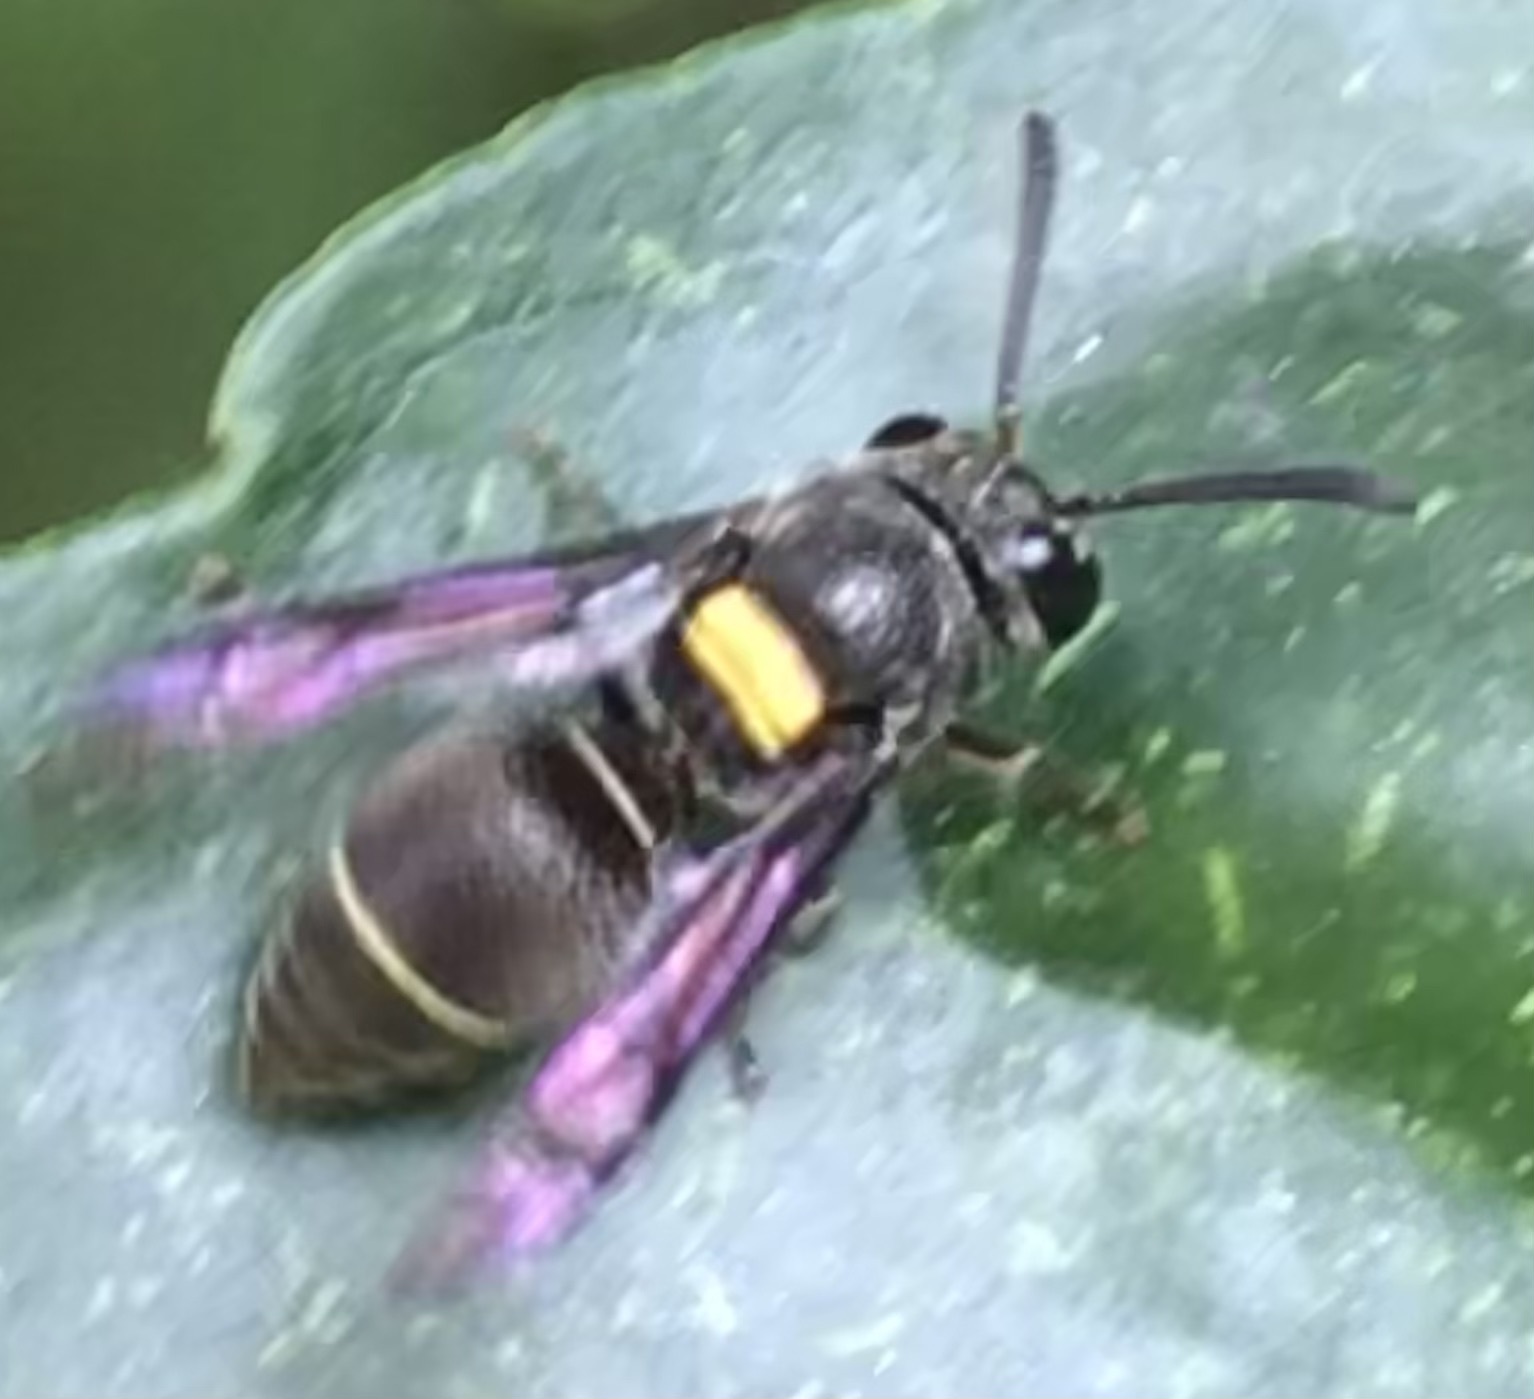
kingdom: Animalia
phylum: Arthropoda
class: Insecta
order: Hymenoptera
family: Vespidae
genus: Brachygastra
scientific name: Brachygastra scutellaris
